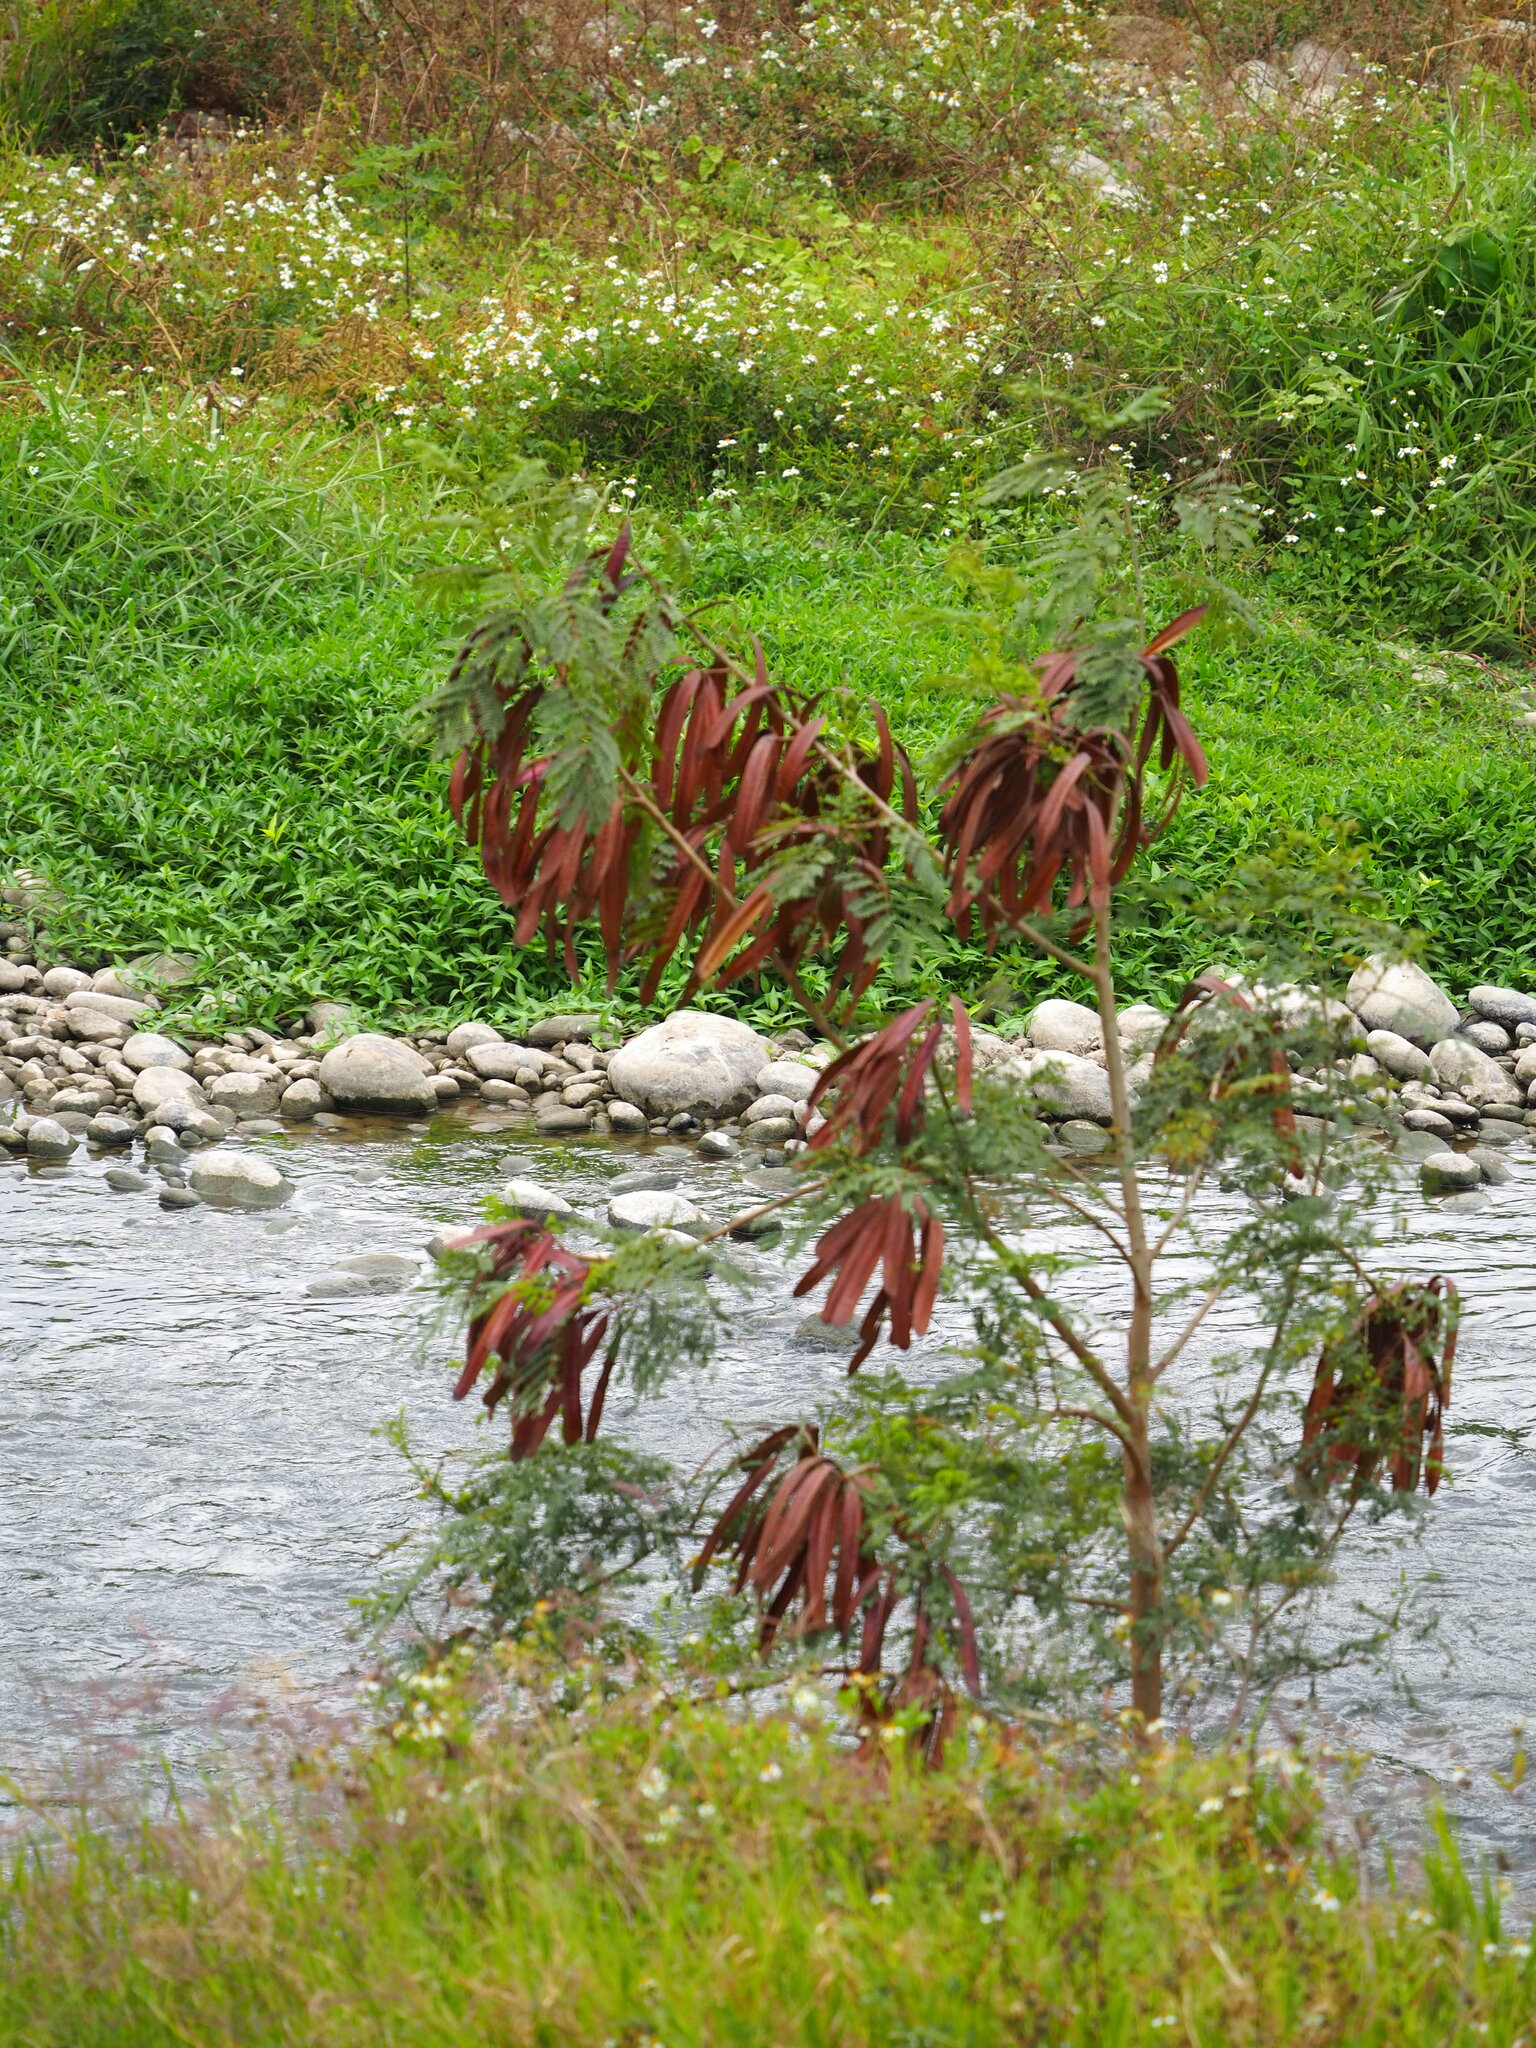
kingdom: Plantae
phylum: Tracheophyta
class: Magnoliopsida
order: Fabales
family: Fabaceae
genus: Leucaena
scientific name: Leucaena leucocephala
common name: White leadtree
